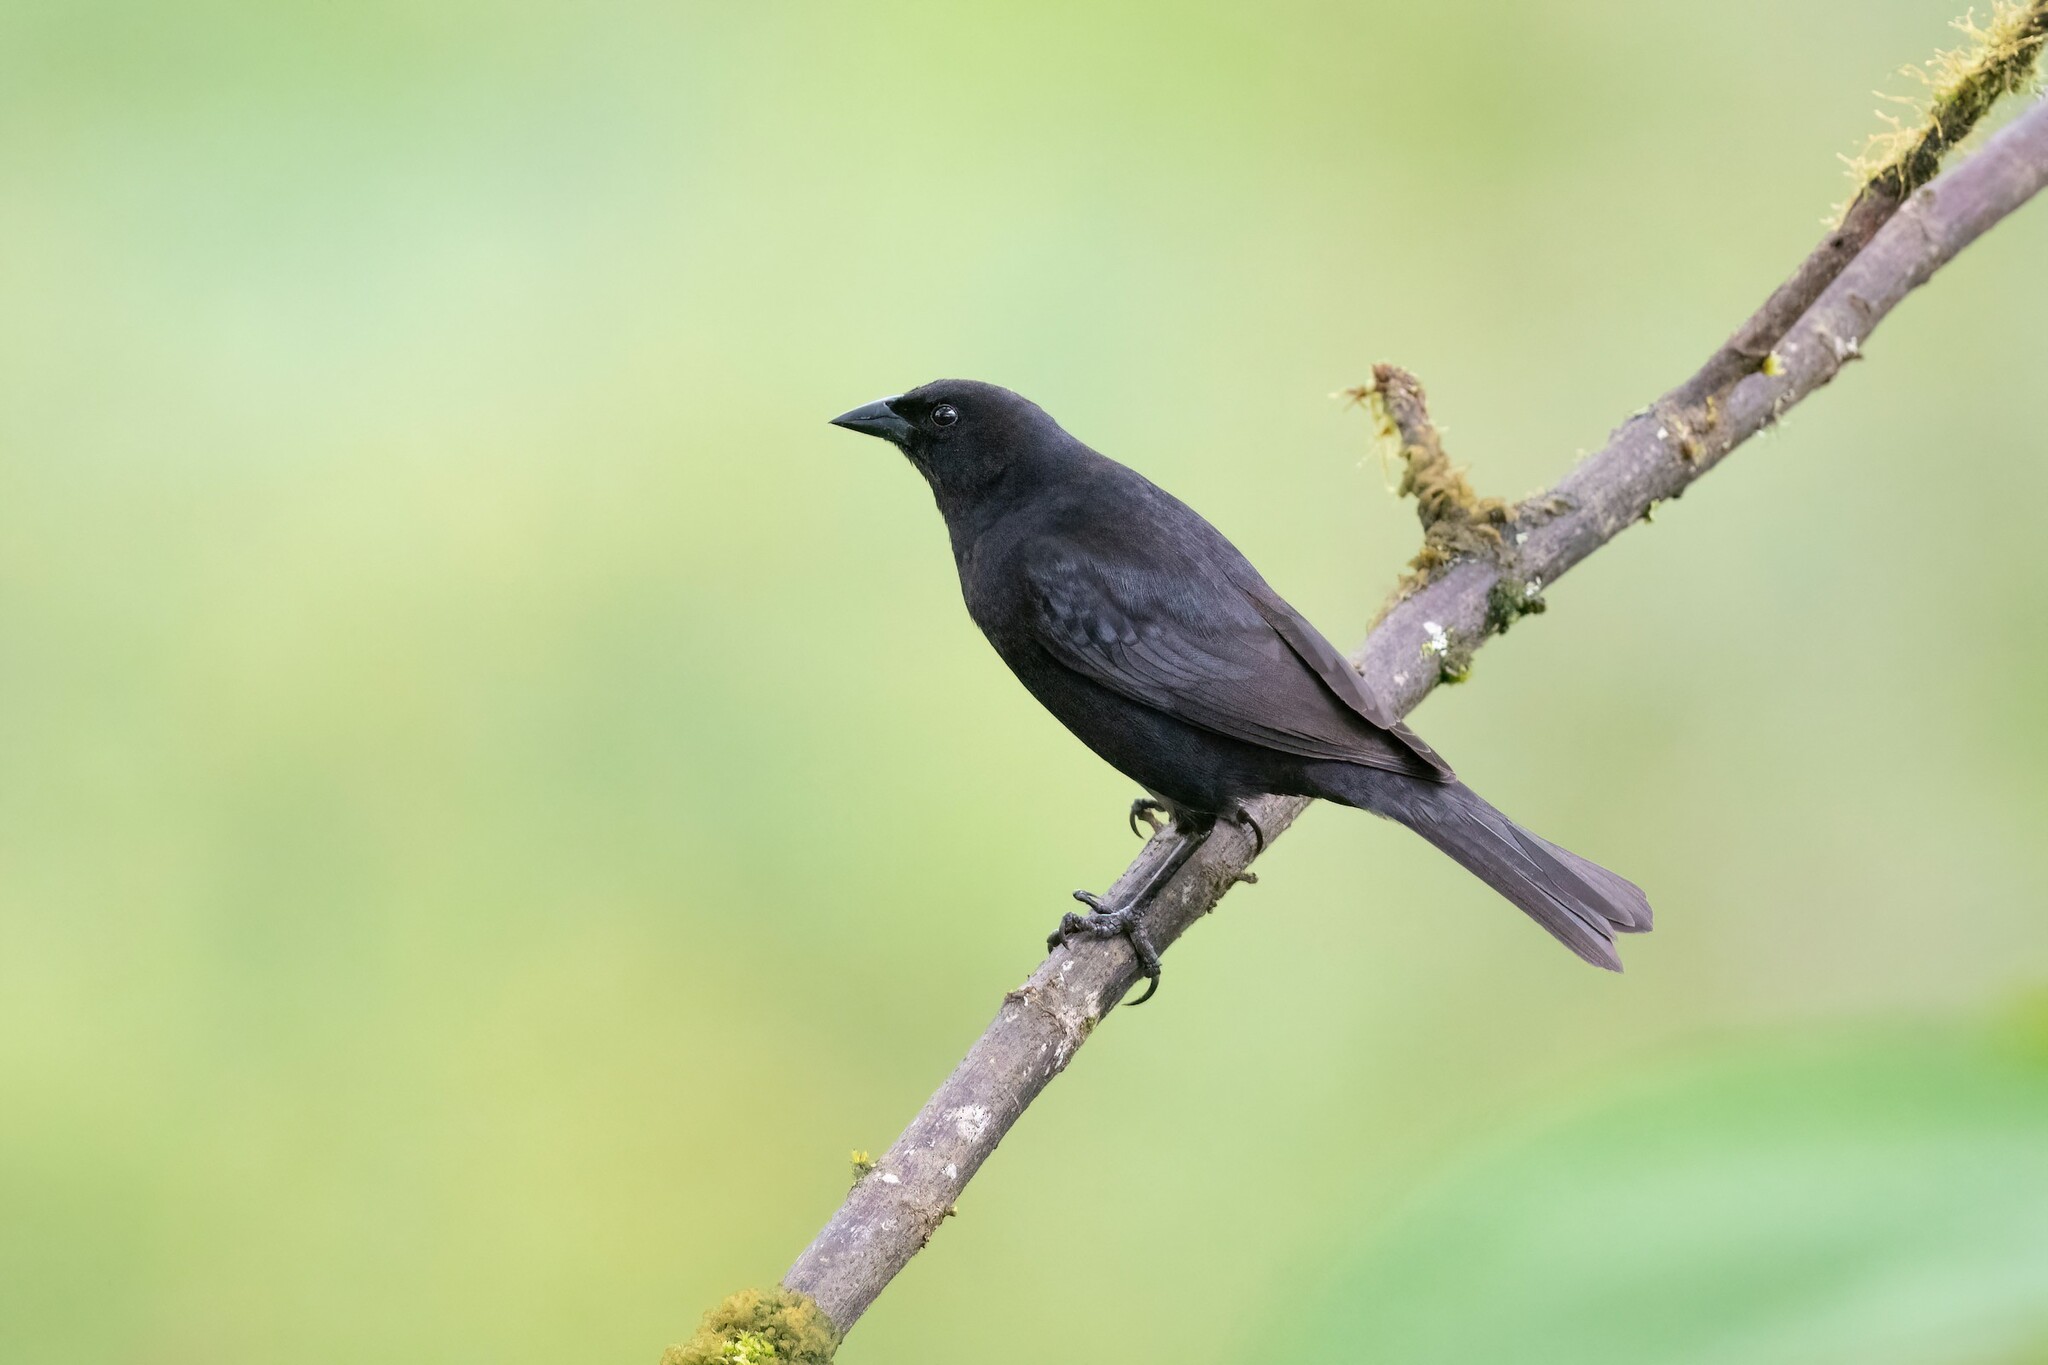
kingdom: Animalia
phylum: Chordata
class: Aves
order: Passeriformes
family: Icteridae
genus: Molothrus
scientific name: Molothrus bonariensis
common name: Shiny cowbird
